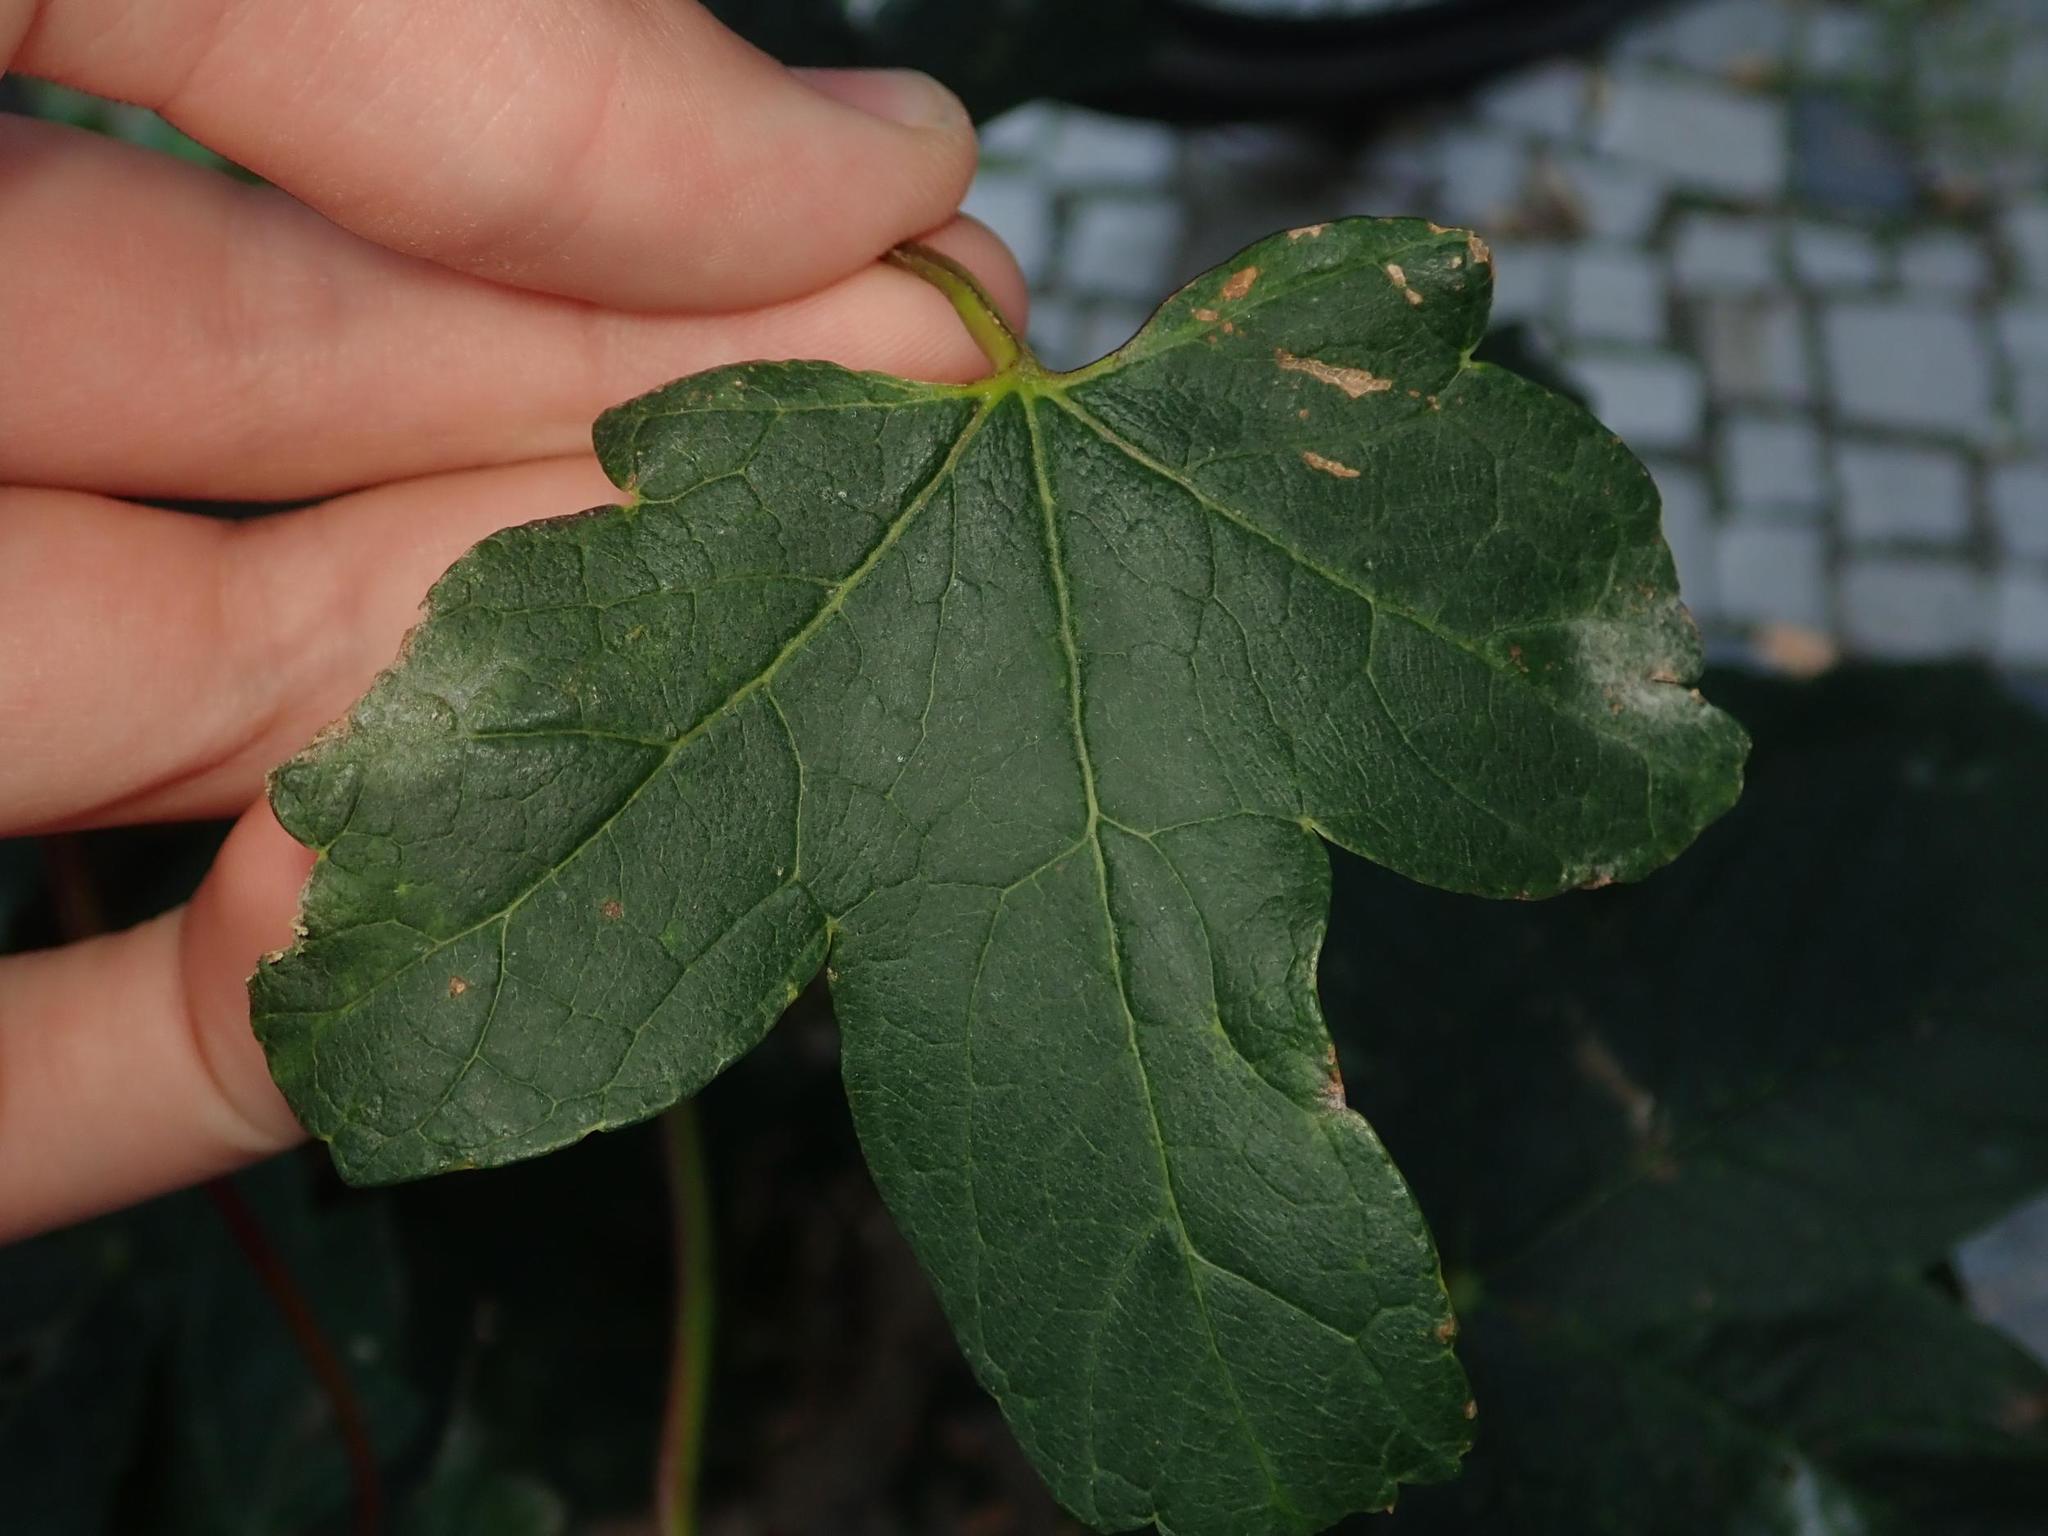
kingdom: Plantae
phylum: Tracheophyta
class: Magnoliopsida
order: Sapindales
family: Sapindaceae
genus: Acer
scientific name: Acer campestre
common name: Field maple
